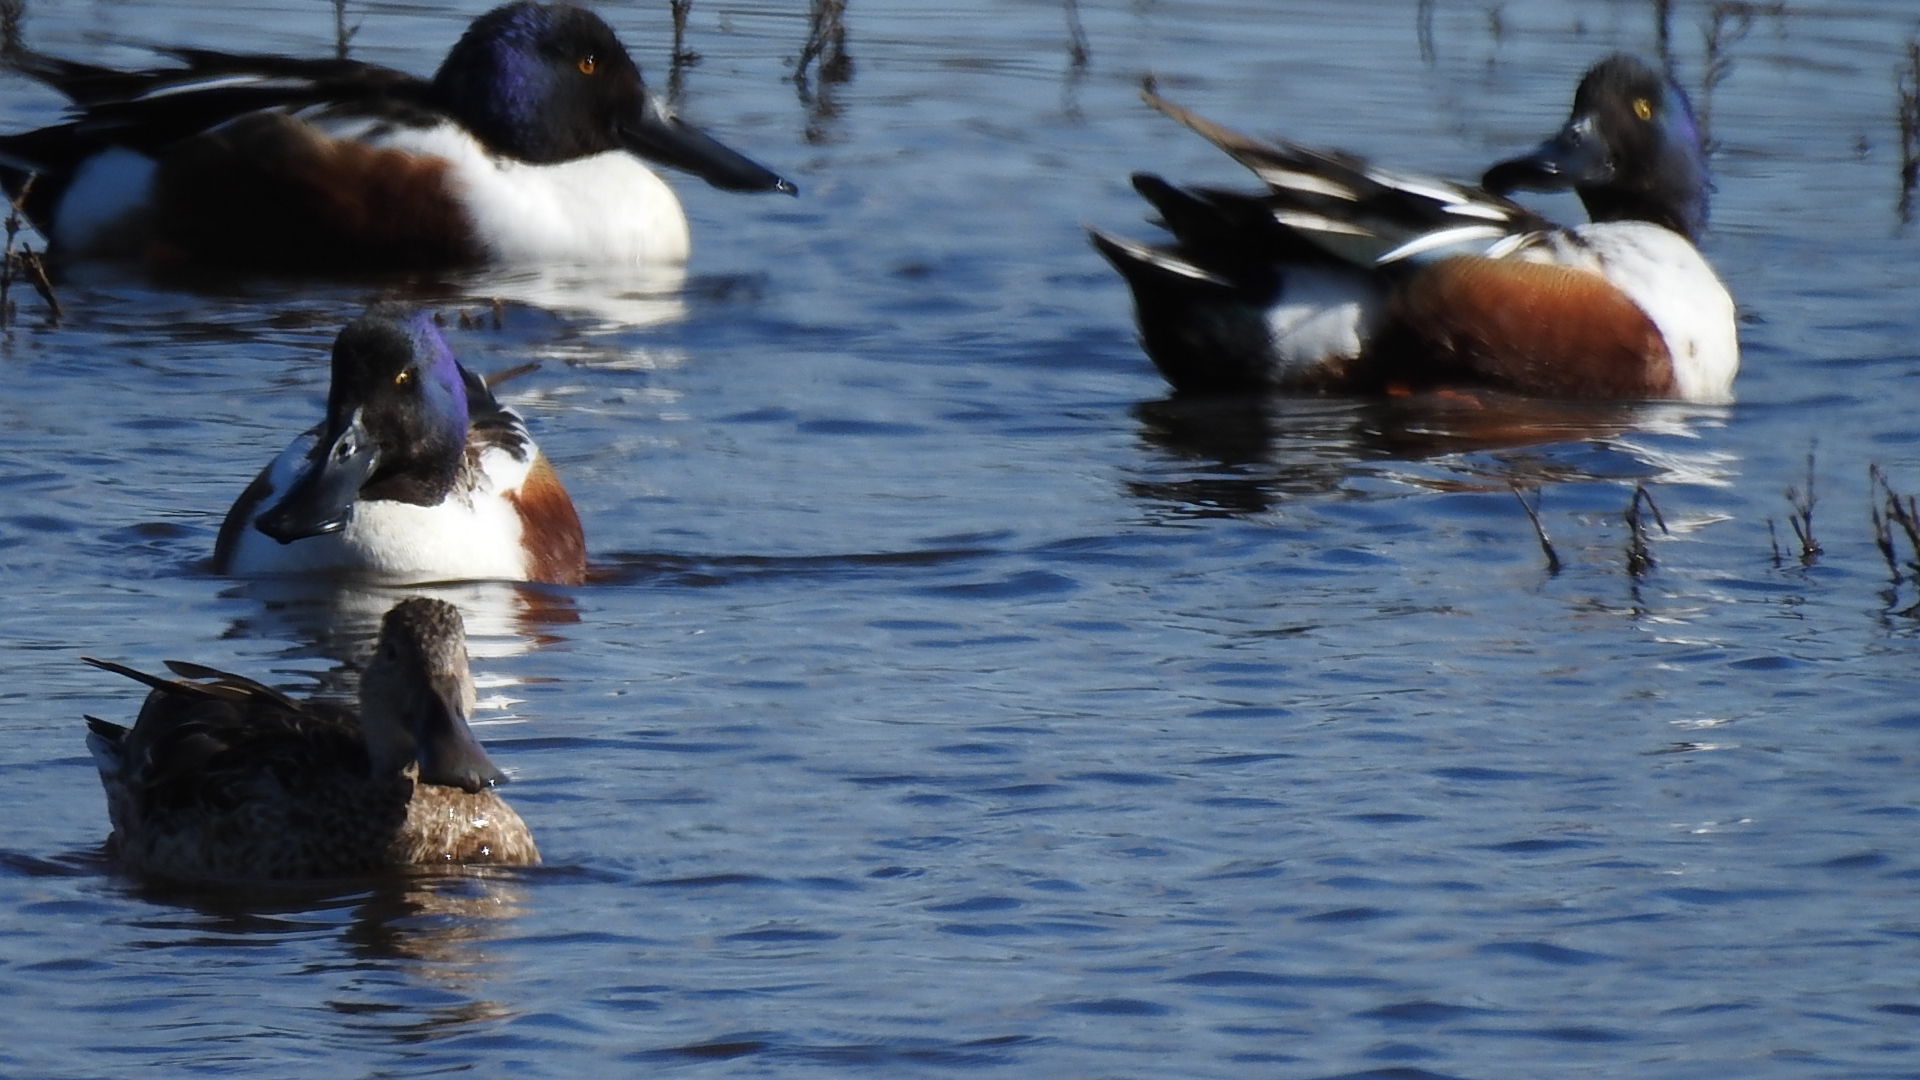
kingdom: Animalia
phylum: Chordata
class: Aves
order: Anseriformes
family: Anatidae
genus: Spatula
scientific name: Spatula clypeata
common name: Northern shoveler
